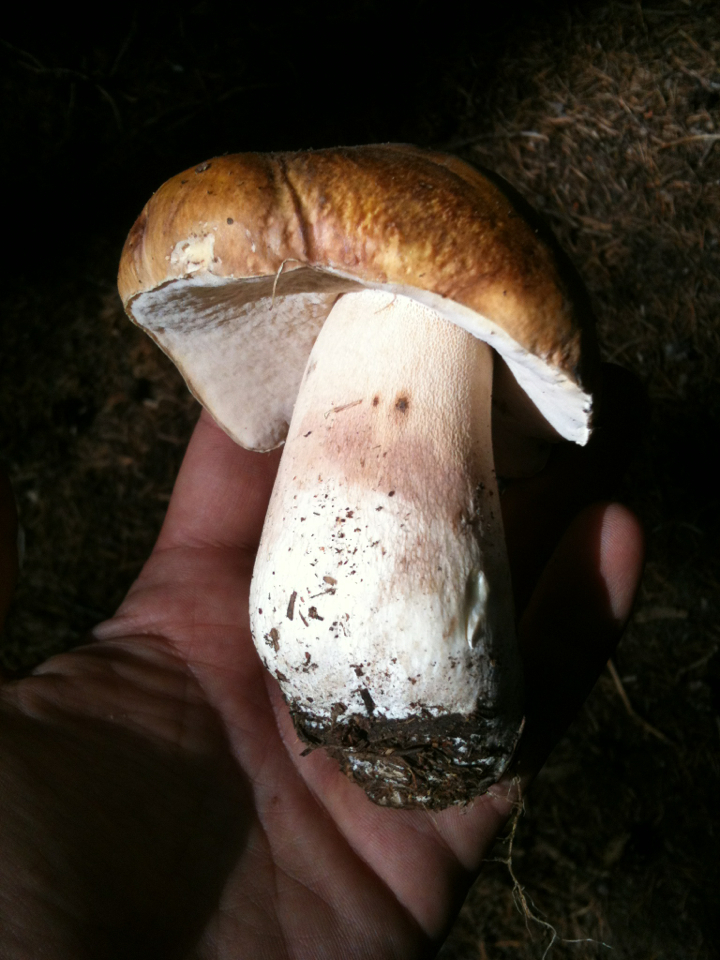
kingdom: Fungi
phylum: Basidiomycota
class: Agaricomycetes
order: Boletales
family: Boletaceae
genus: Boletus
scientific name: Boletus edulis
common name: Cep
